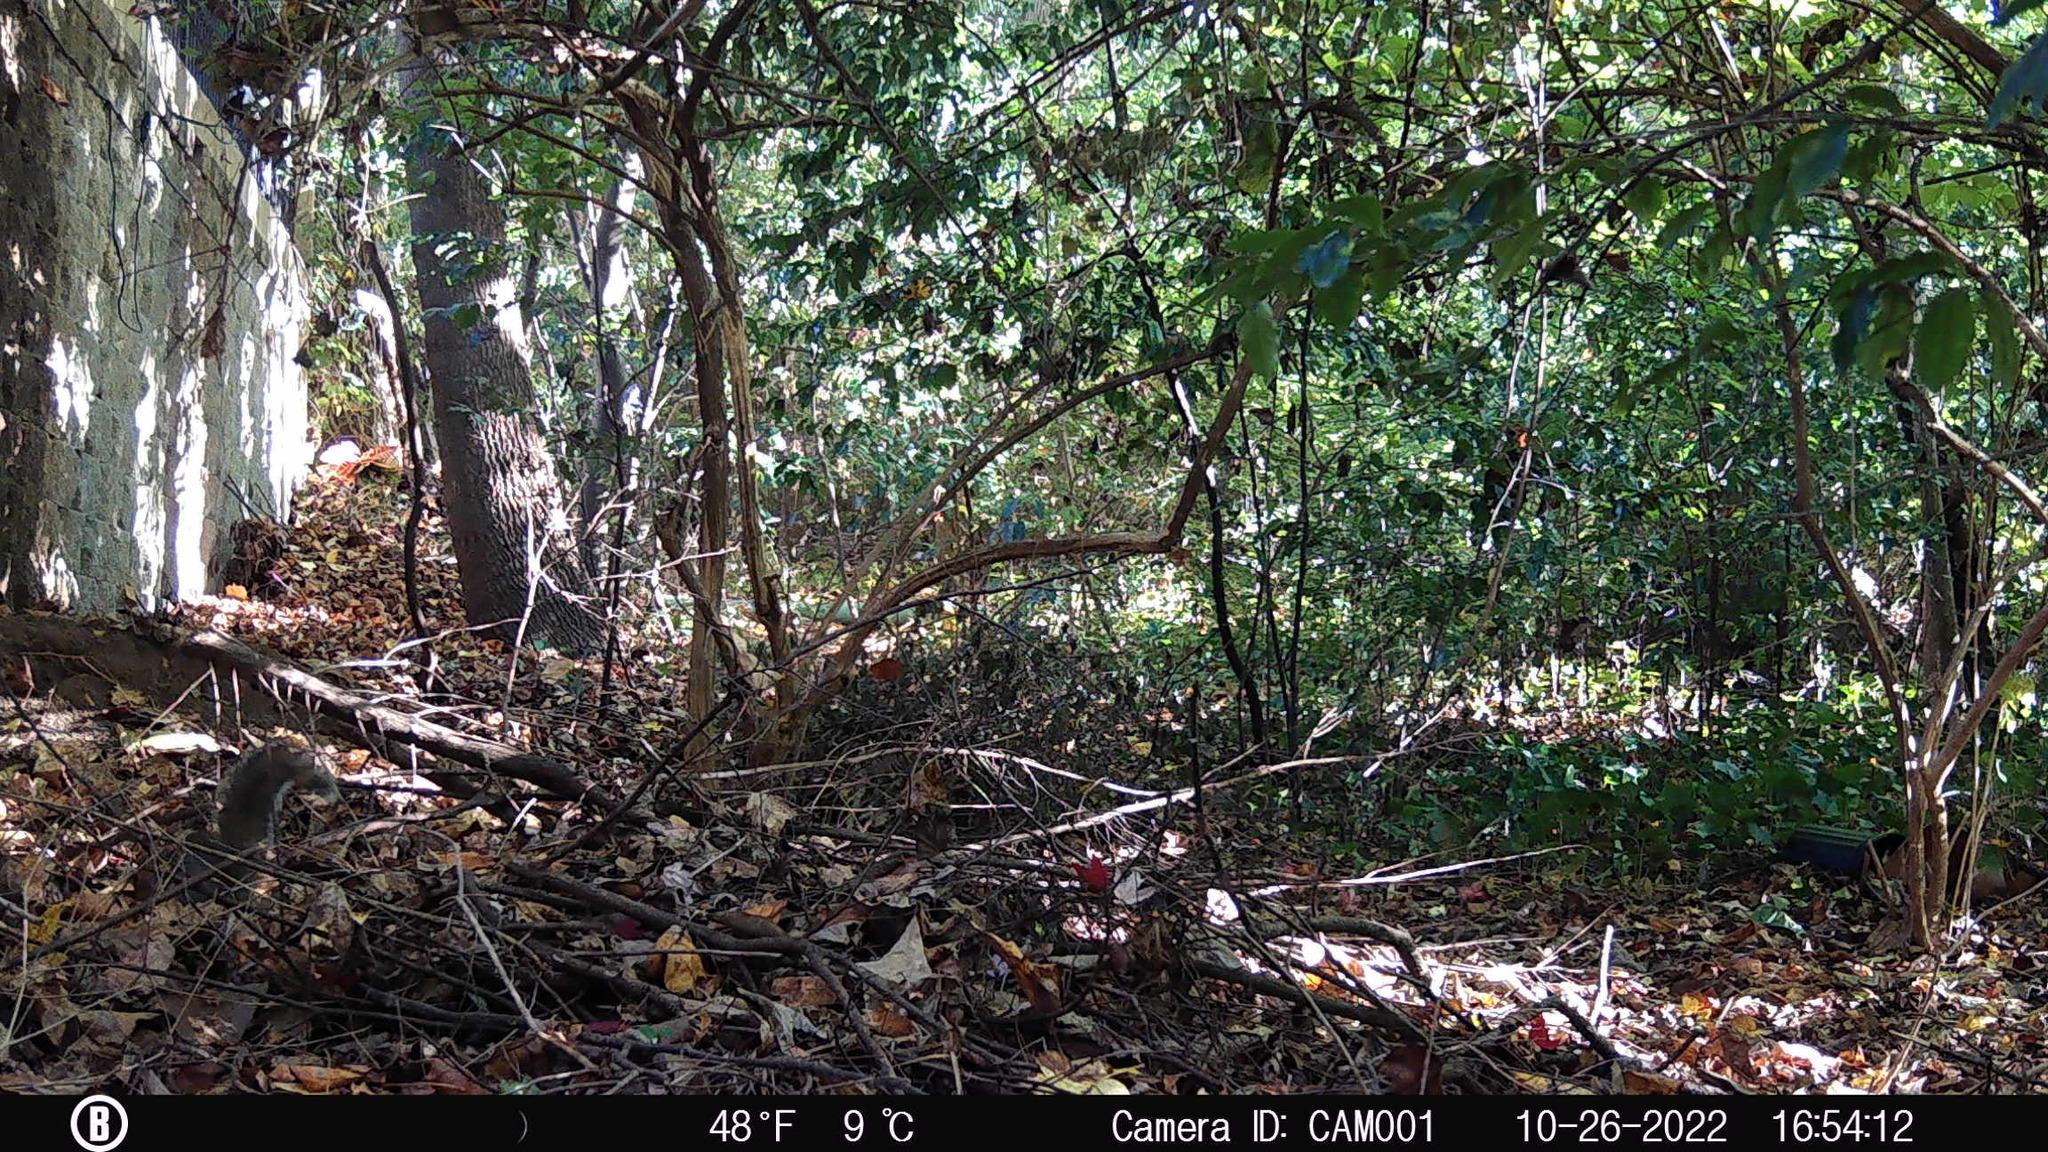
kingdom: Animalia
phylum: Chordata
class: Mammalia
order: Rodentia
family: Sciuridae
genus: Sciurus
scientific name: Sciurus carolinensis
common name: Eastern gray squirrel
